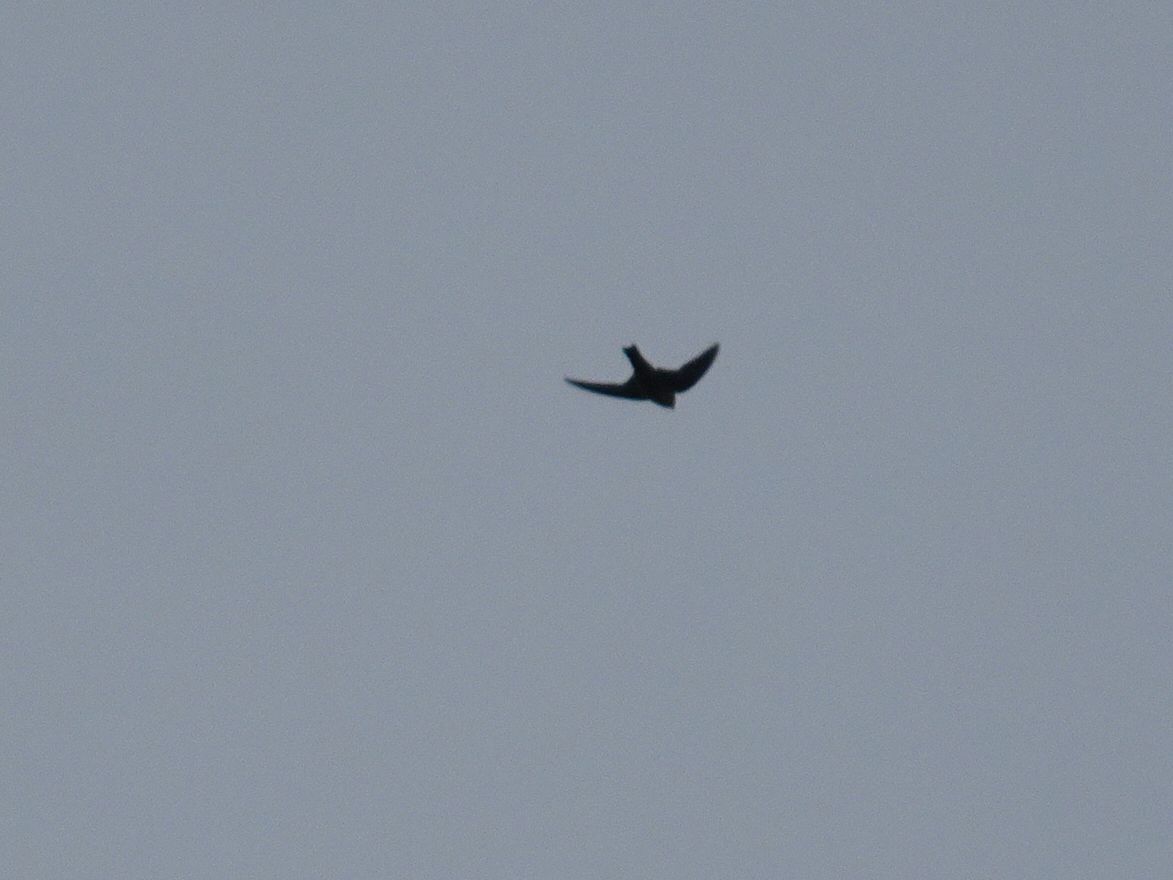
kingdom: Animalia
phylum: Chordata
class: Aves
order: Passeriformes
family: Hirundinidae
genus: Ptyonoprogne
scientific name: Ptyonoprogne rupestris
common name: Eurasian crag martin
